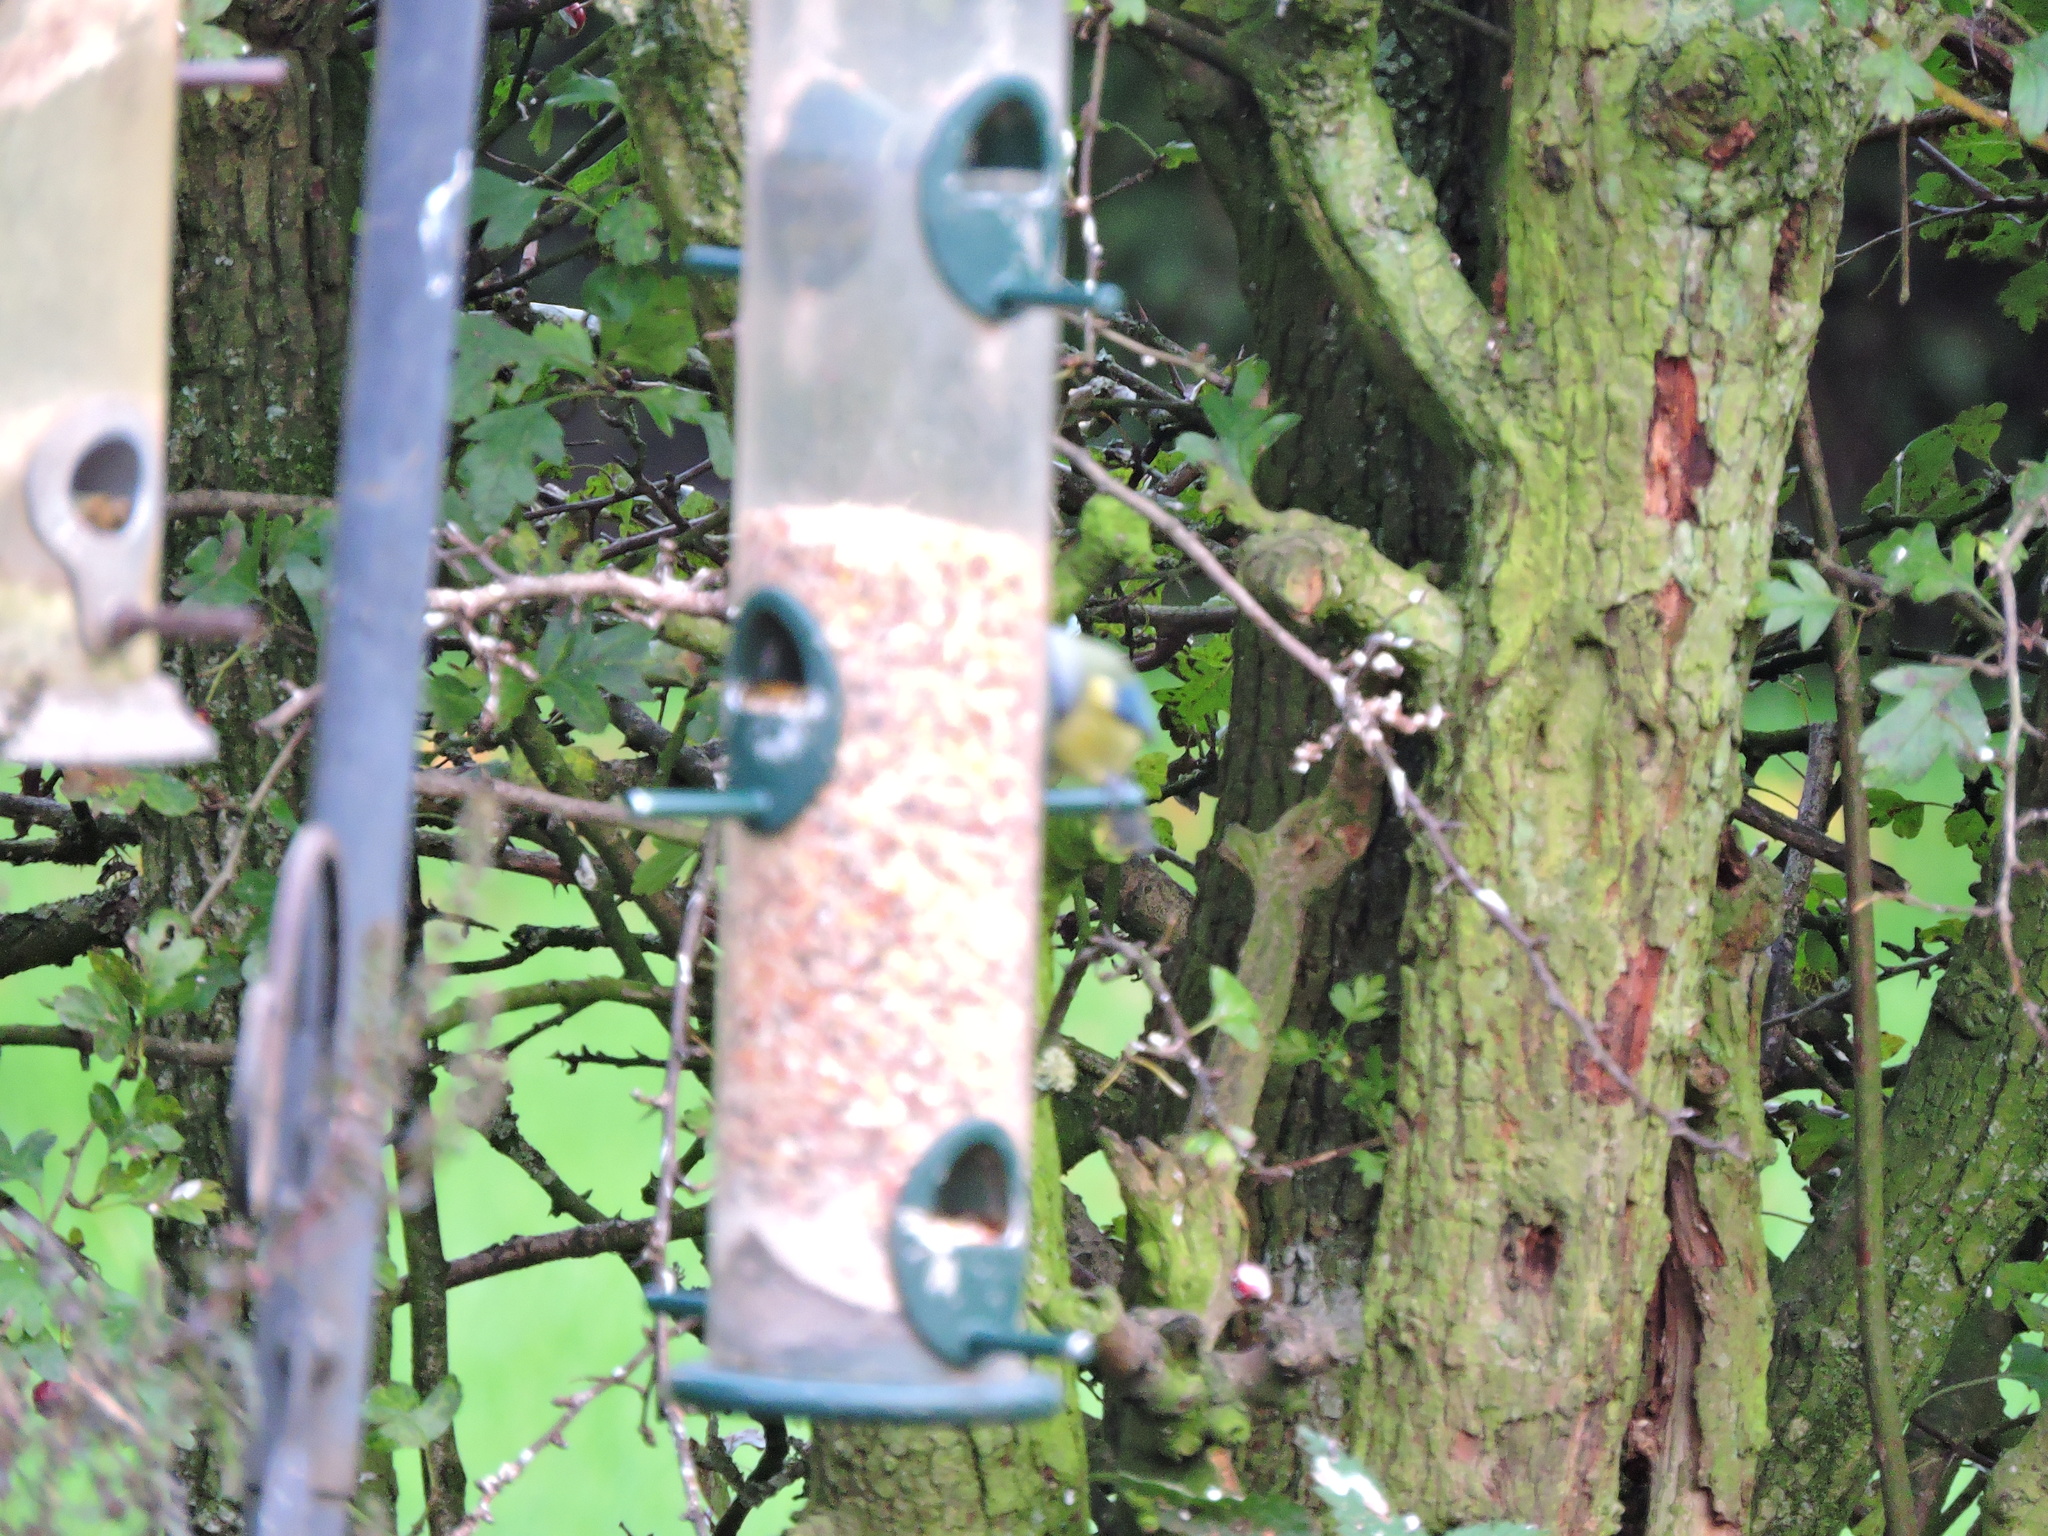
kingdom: Animalia
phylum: Chordata
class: Aves
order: Passeriformes
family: Paridae
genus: Cyanistes
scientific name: Cyanistes caeruleus
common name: Eurasian blue tit
